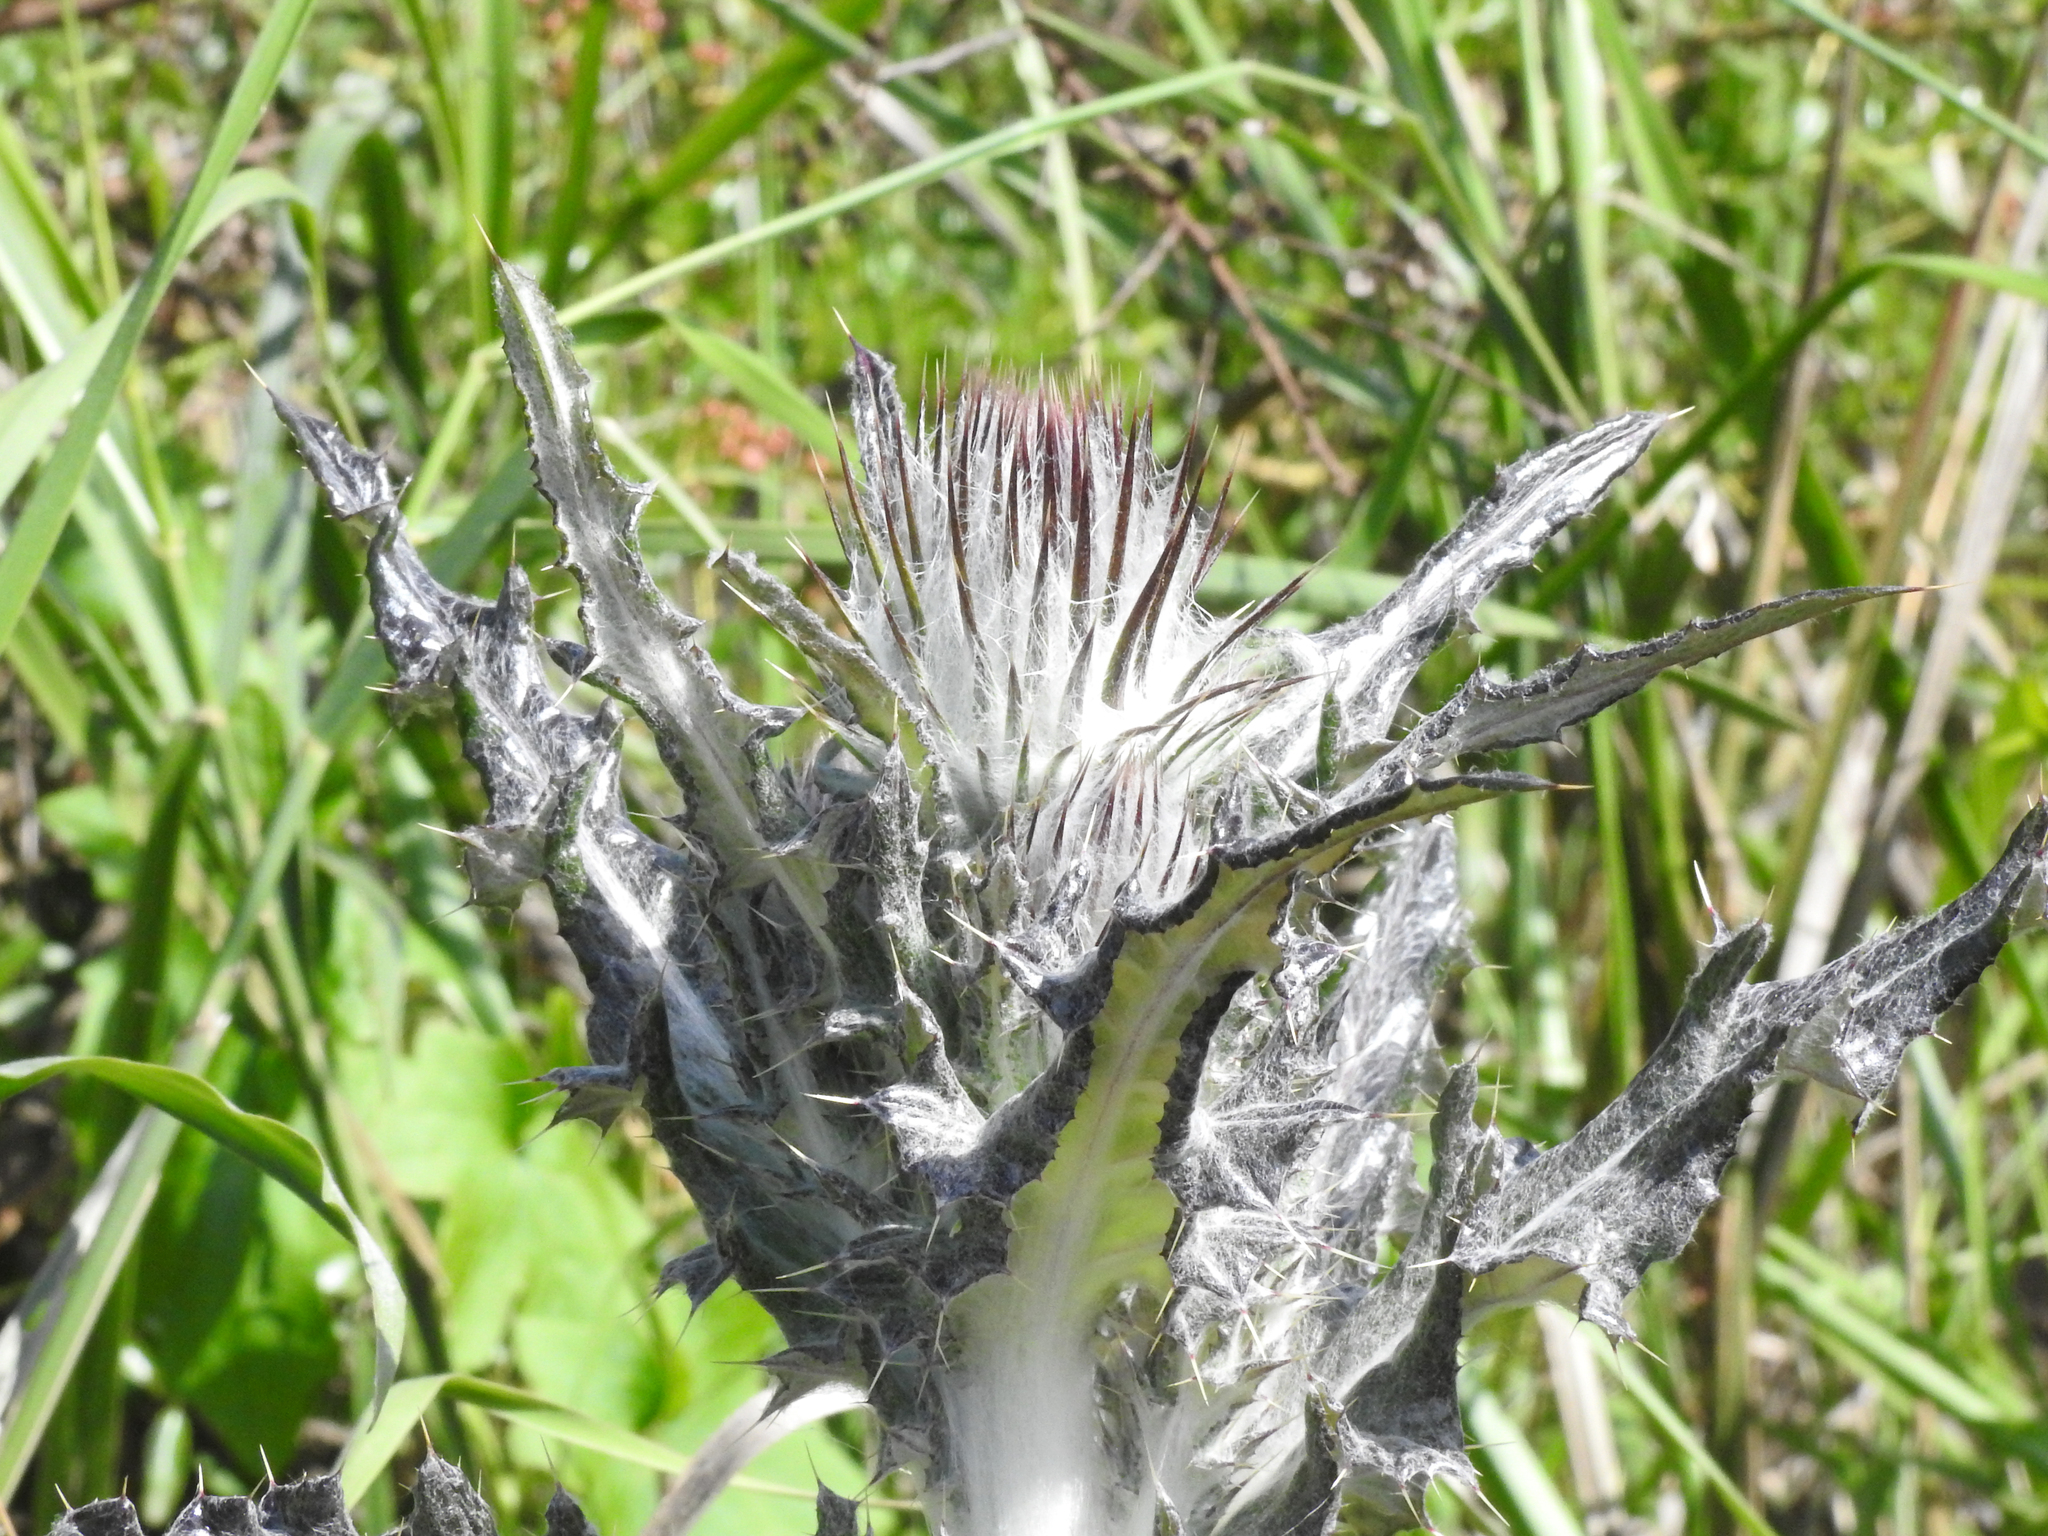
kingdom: Plantae
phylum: Tracheophyta
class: Magnoliopsida
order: Asterales
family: Asteraceae
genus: Cirsium
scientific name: Cirsium occidentale
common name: Western thistle
